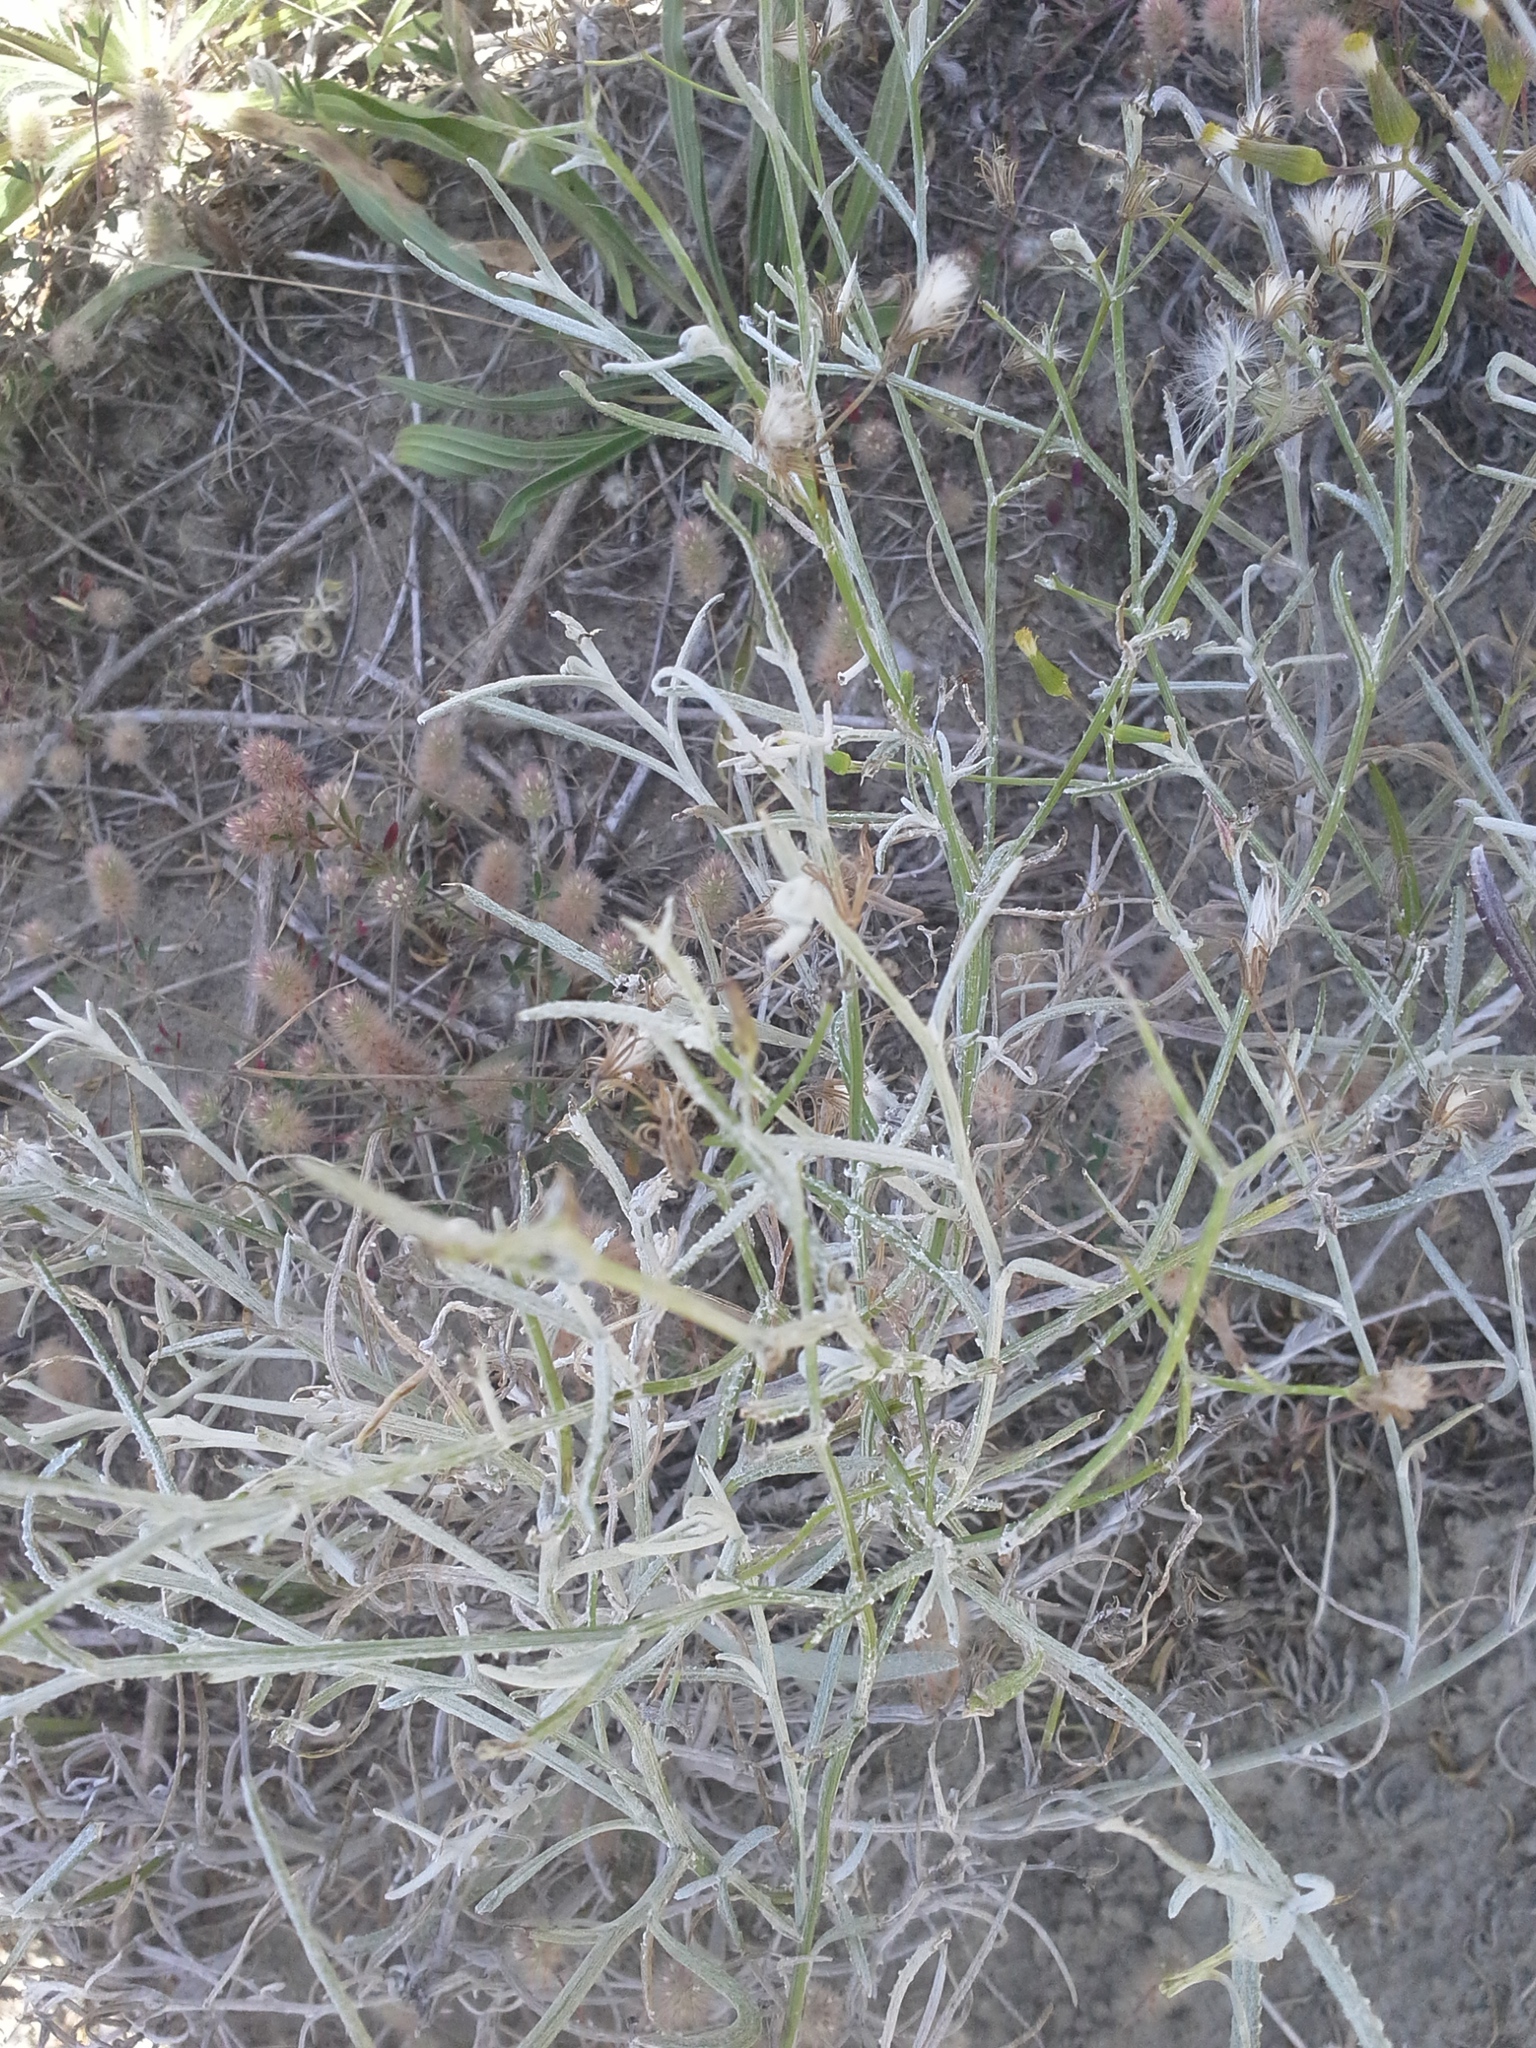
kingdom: Plantae
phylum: Tracheophyta
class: Magnoliopsida
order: Asterales
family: Asteraceae
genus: Senecio
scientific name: Senecio quadridentatus
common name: Cotton fireweed
